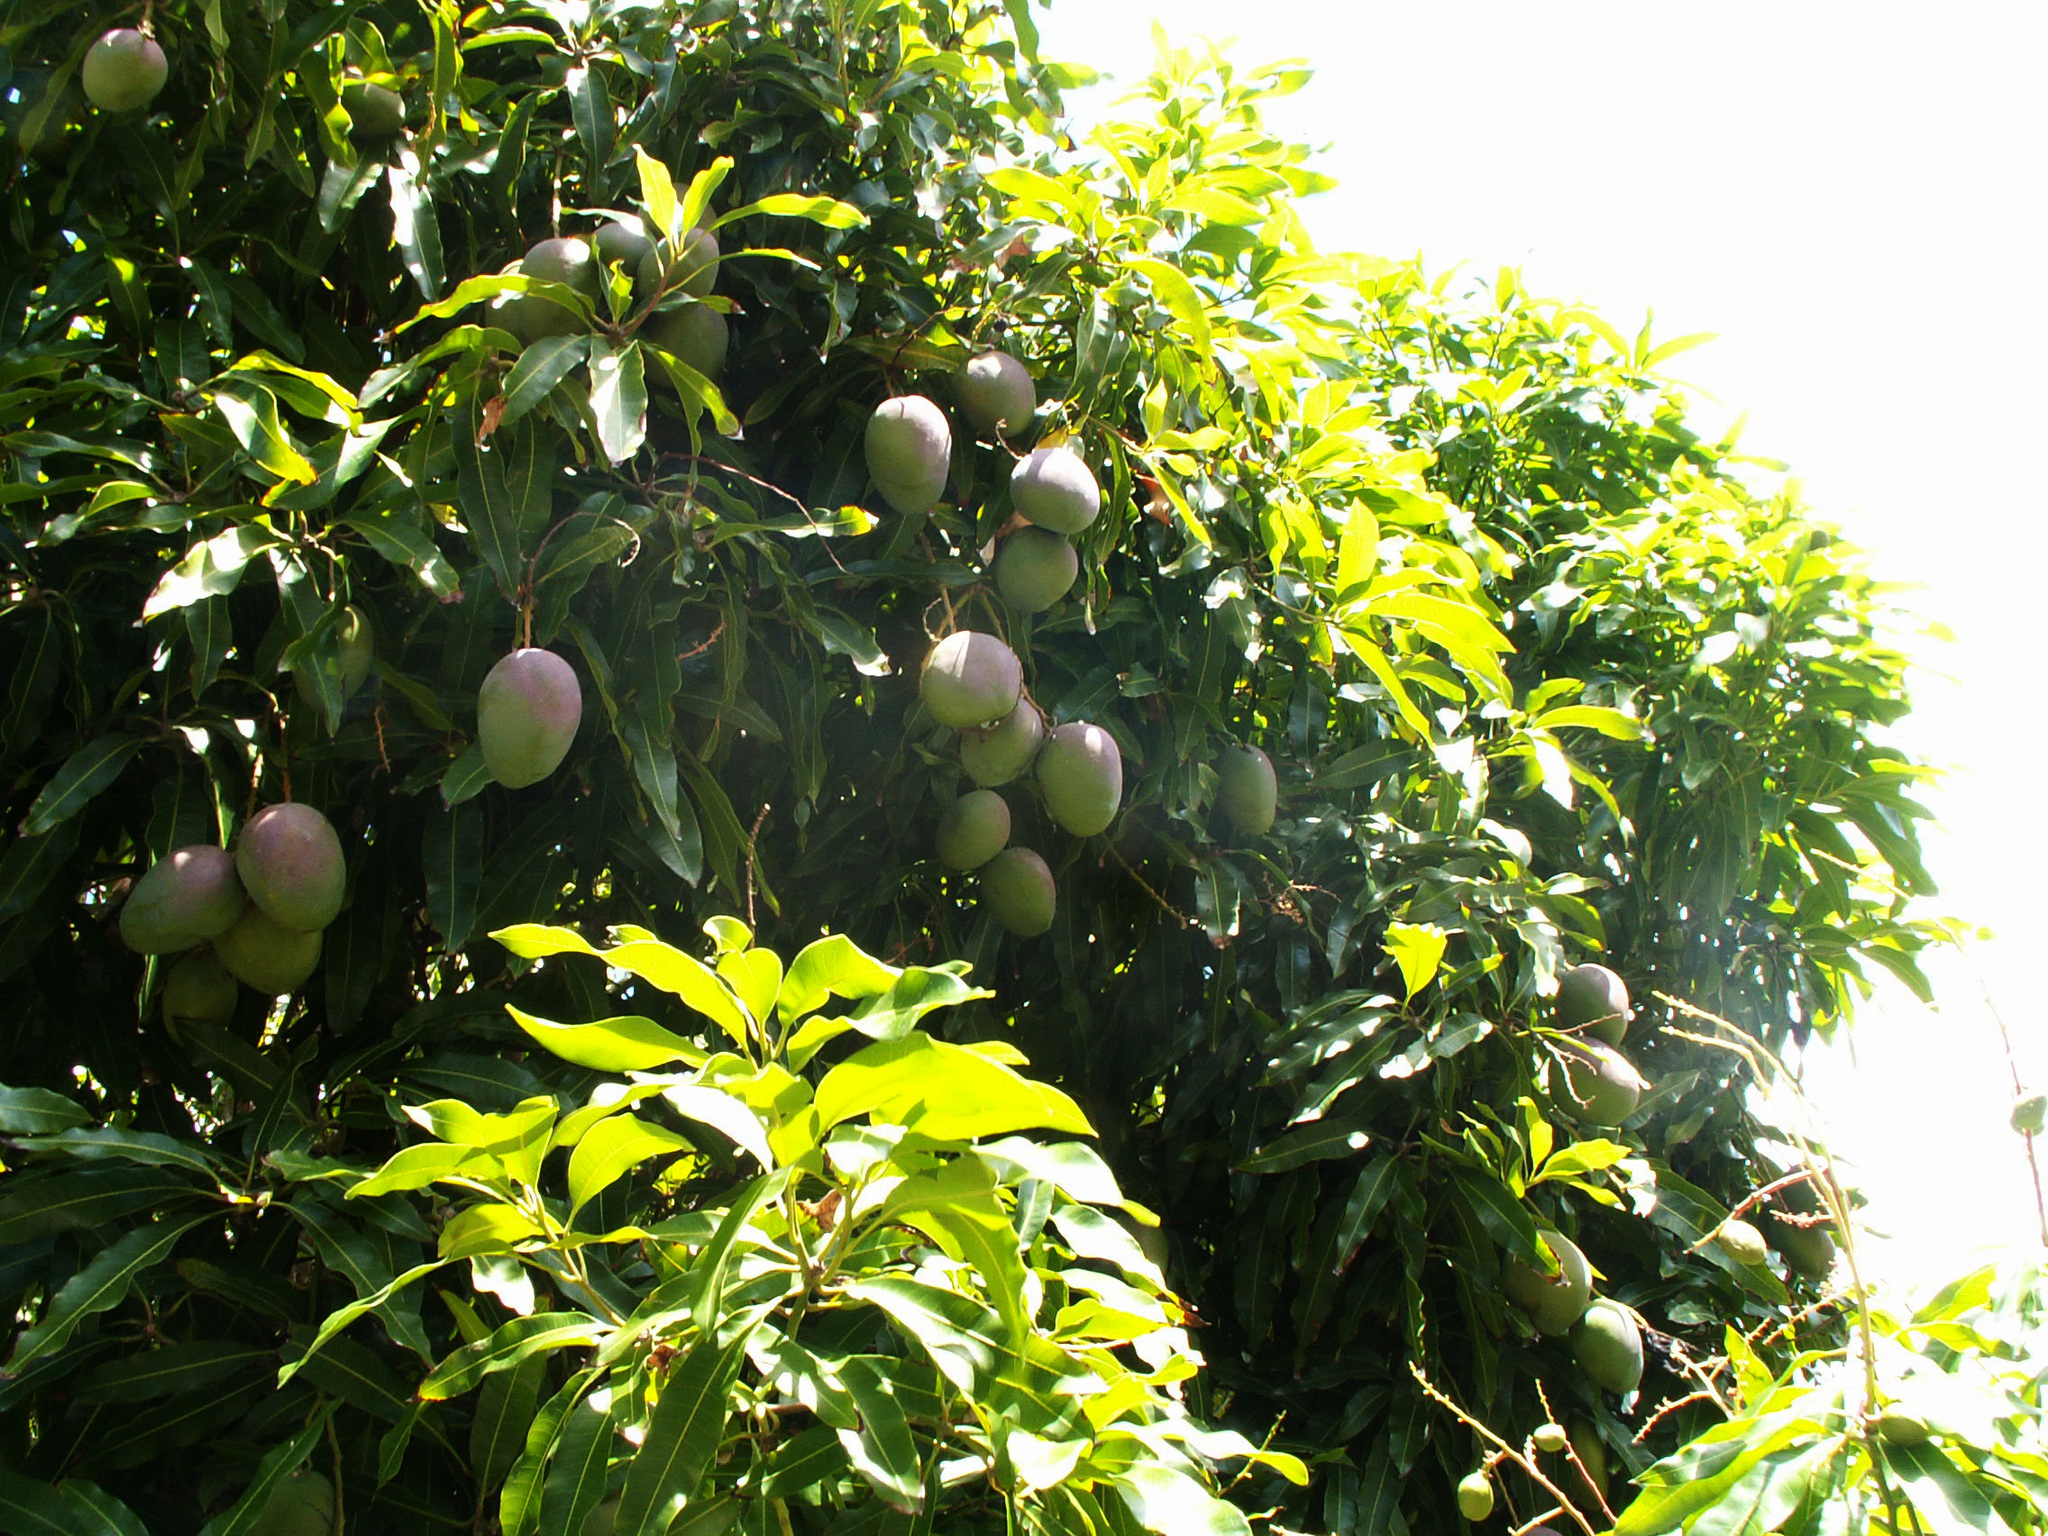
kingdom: Plantae
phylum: Tracheophyta
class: Magnoliopsida
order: Sapindales
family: Anacardiaceae
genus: Mangifera
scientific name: Mangifera indica
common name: Mango
